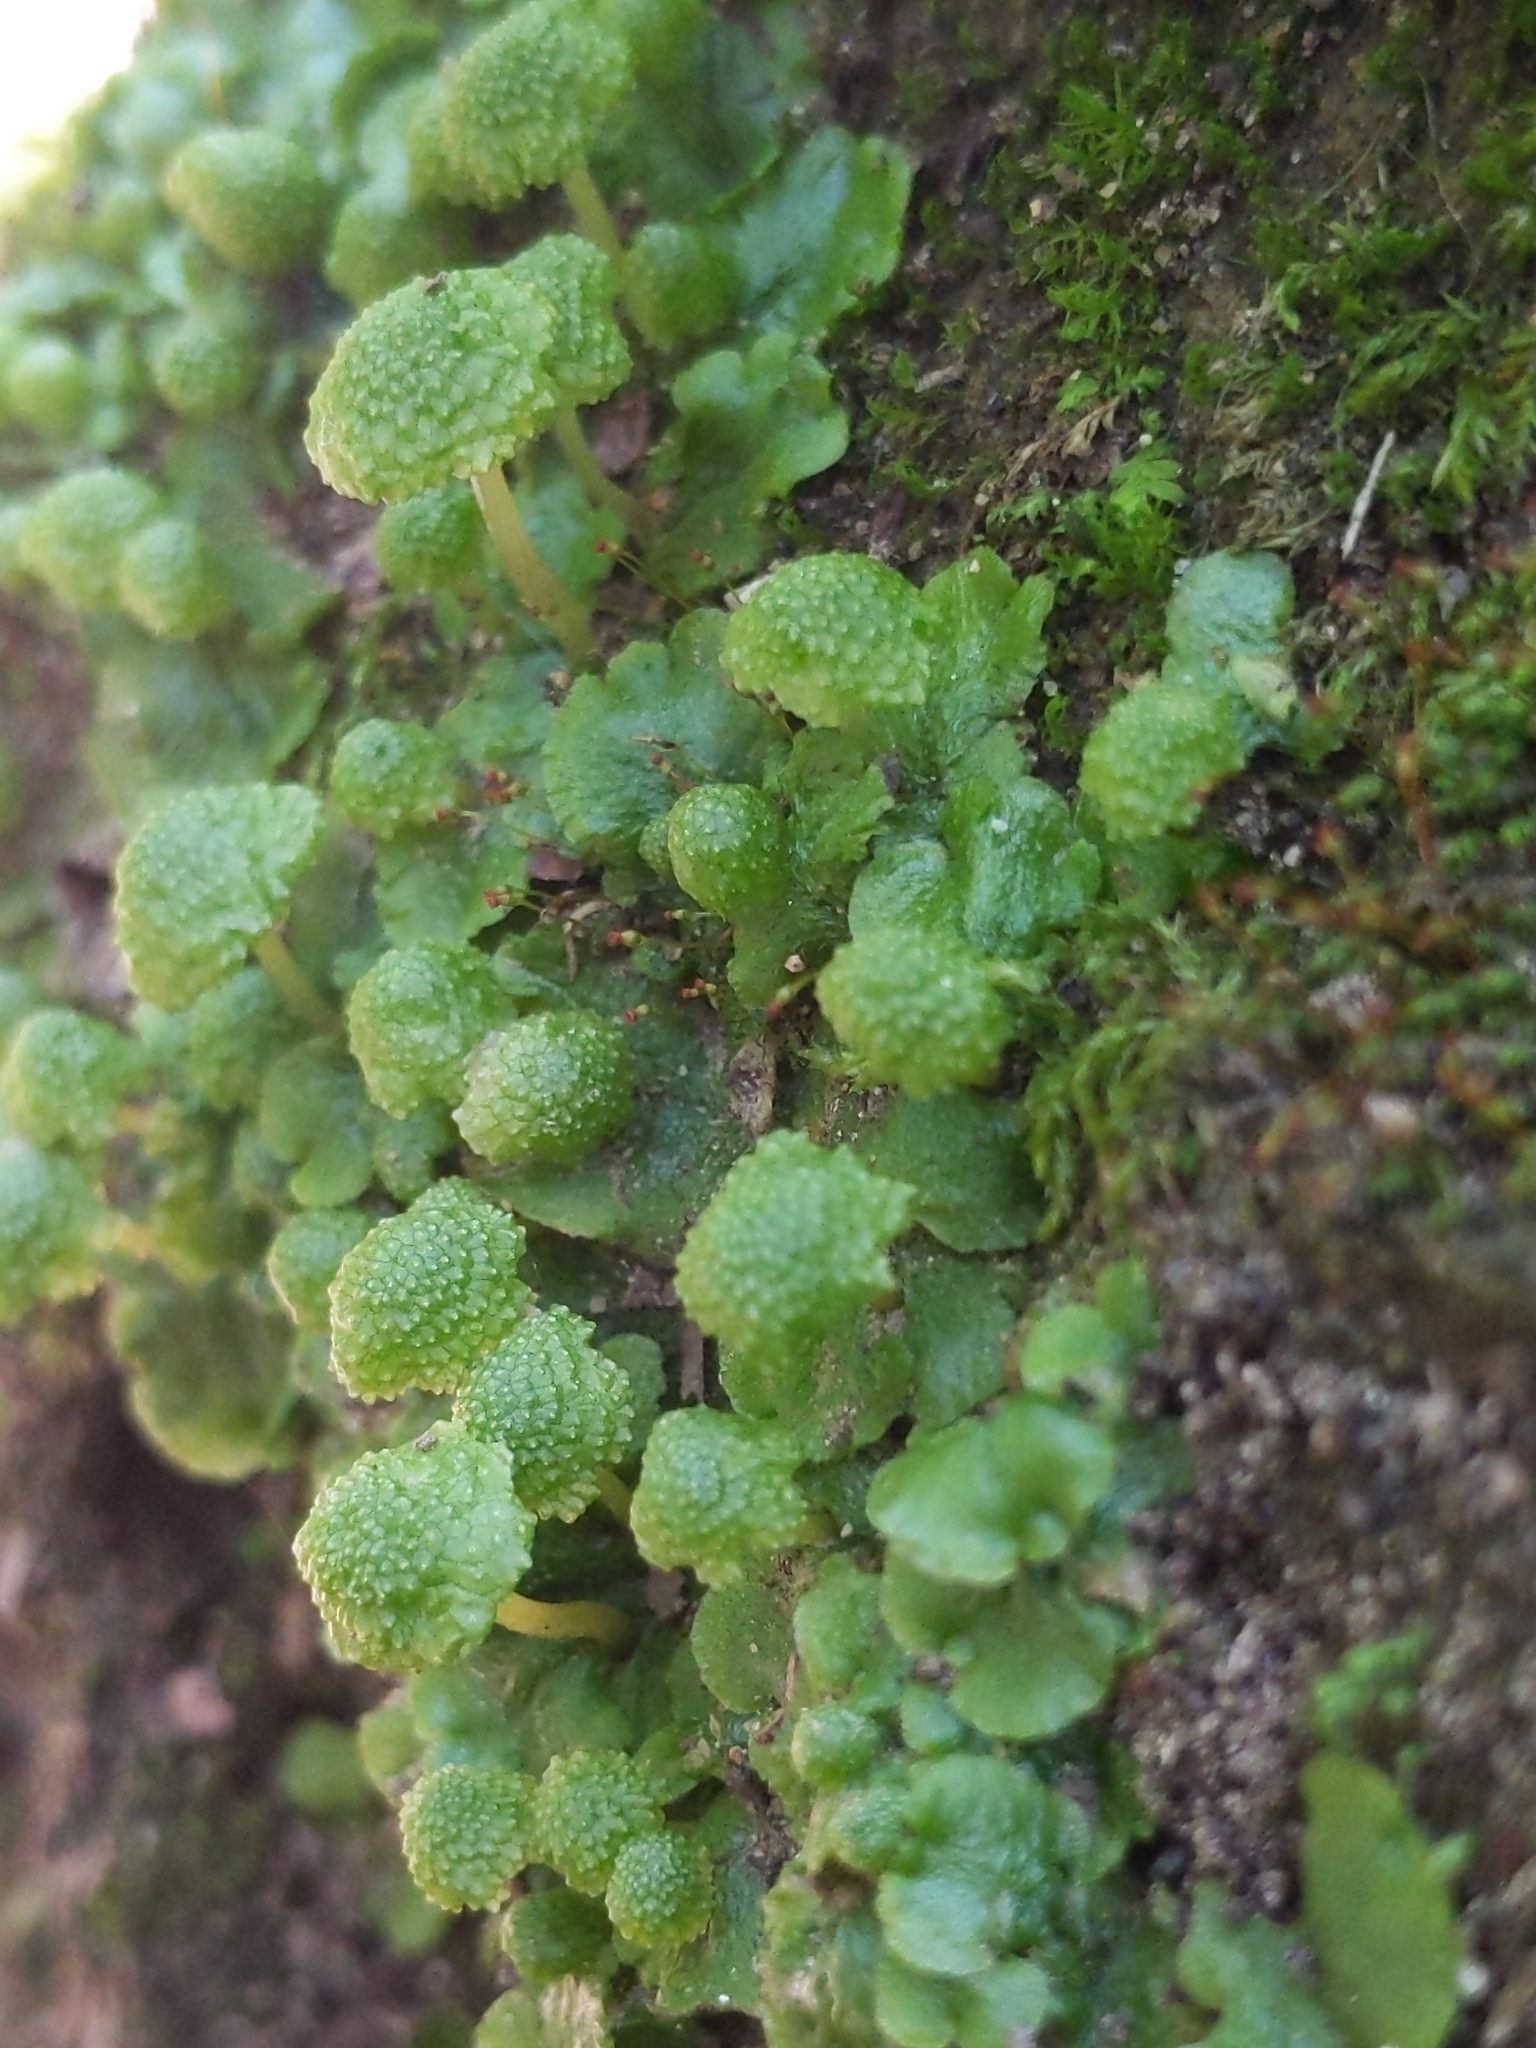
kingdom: Plantae
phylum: Marchantiophyta
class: Marchantiopsida
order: Marchantiales
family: Aytoniaceae
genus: Cryptomitrium
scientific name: Cryptomitrium tenerum
